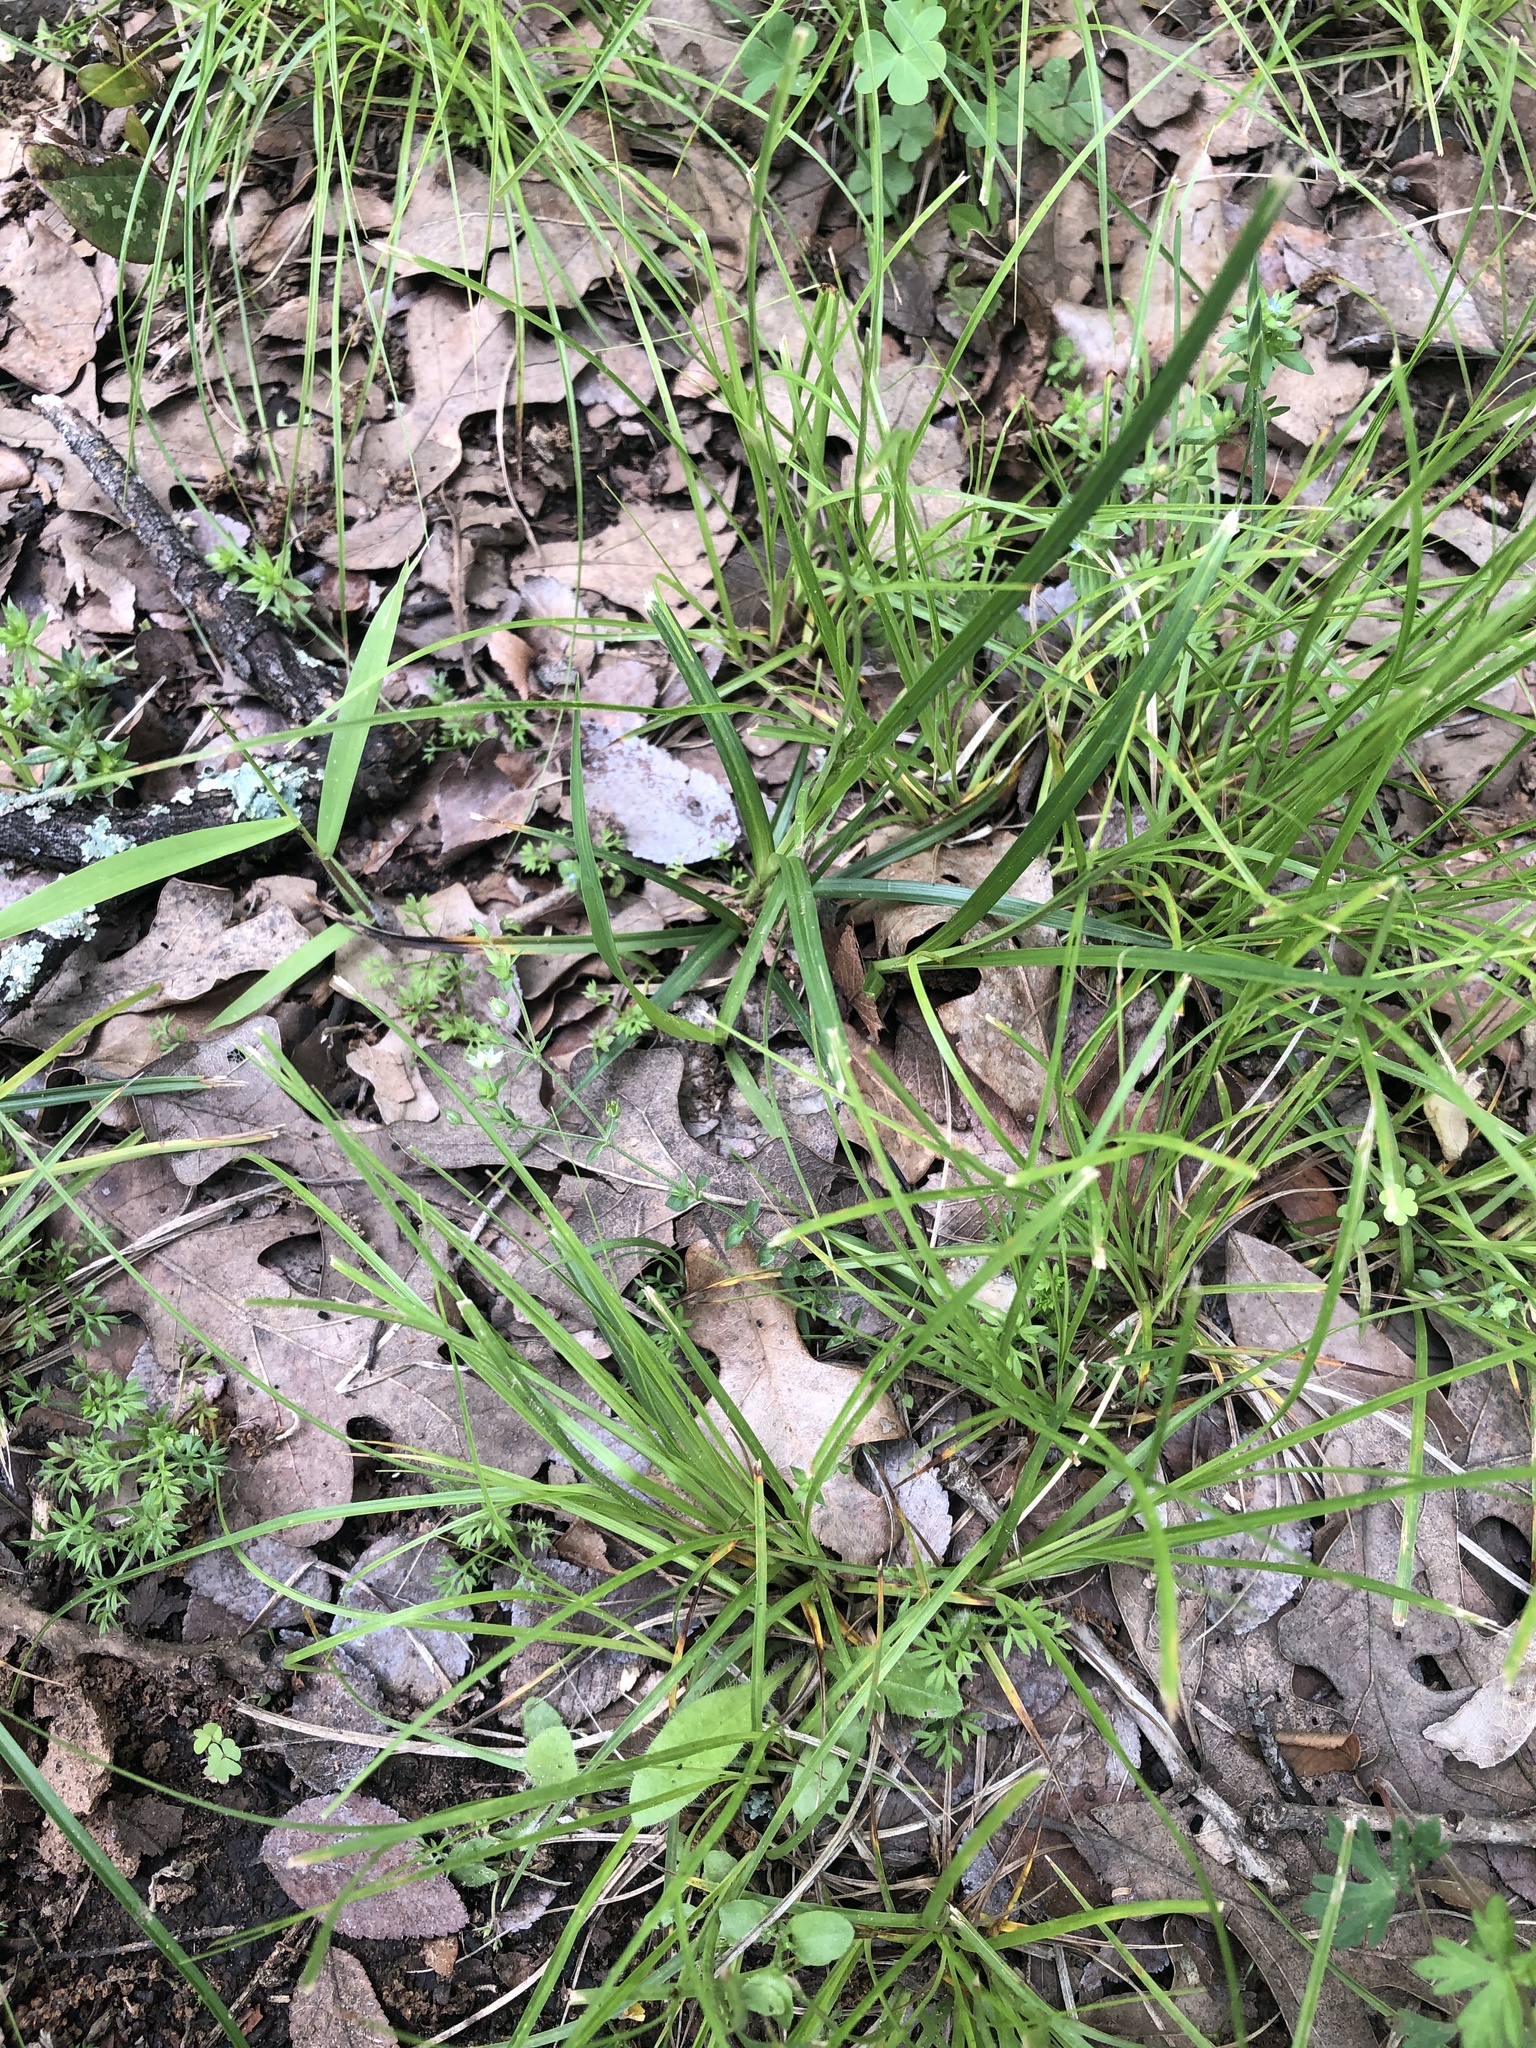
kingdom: Plantae
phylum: Tracheophyta
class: Magnoliopsida
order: Caryophyllales
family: Caryophyllaceae
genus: Arenaria
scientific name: Arenaria serpyllifolia
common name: Thyme-leaved sandwort
